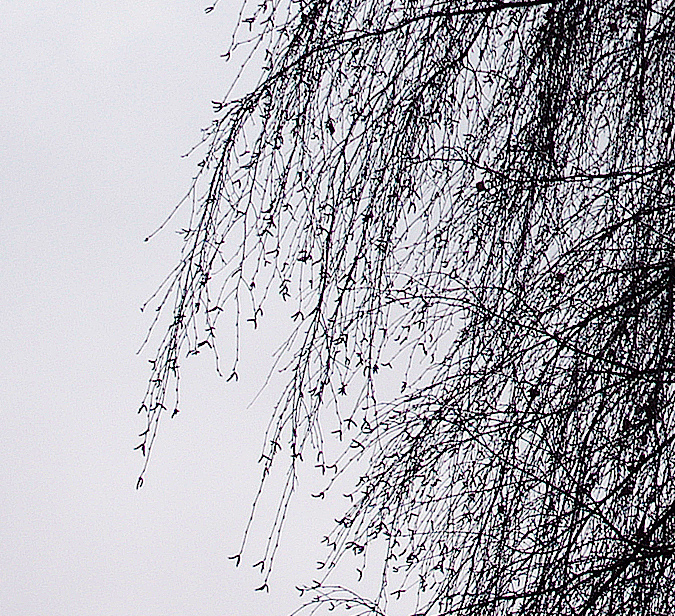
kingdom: Plantae
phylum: Tracheophyta
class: Magnoliopsida
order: Fagales
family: Betulaceae
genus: Betula
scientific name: Betula pendula
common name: Silver birch
